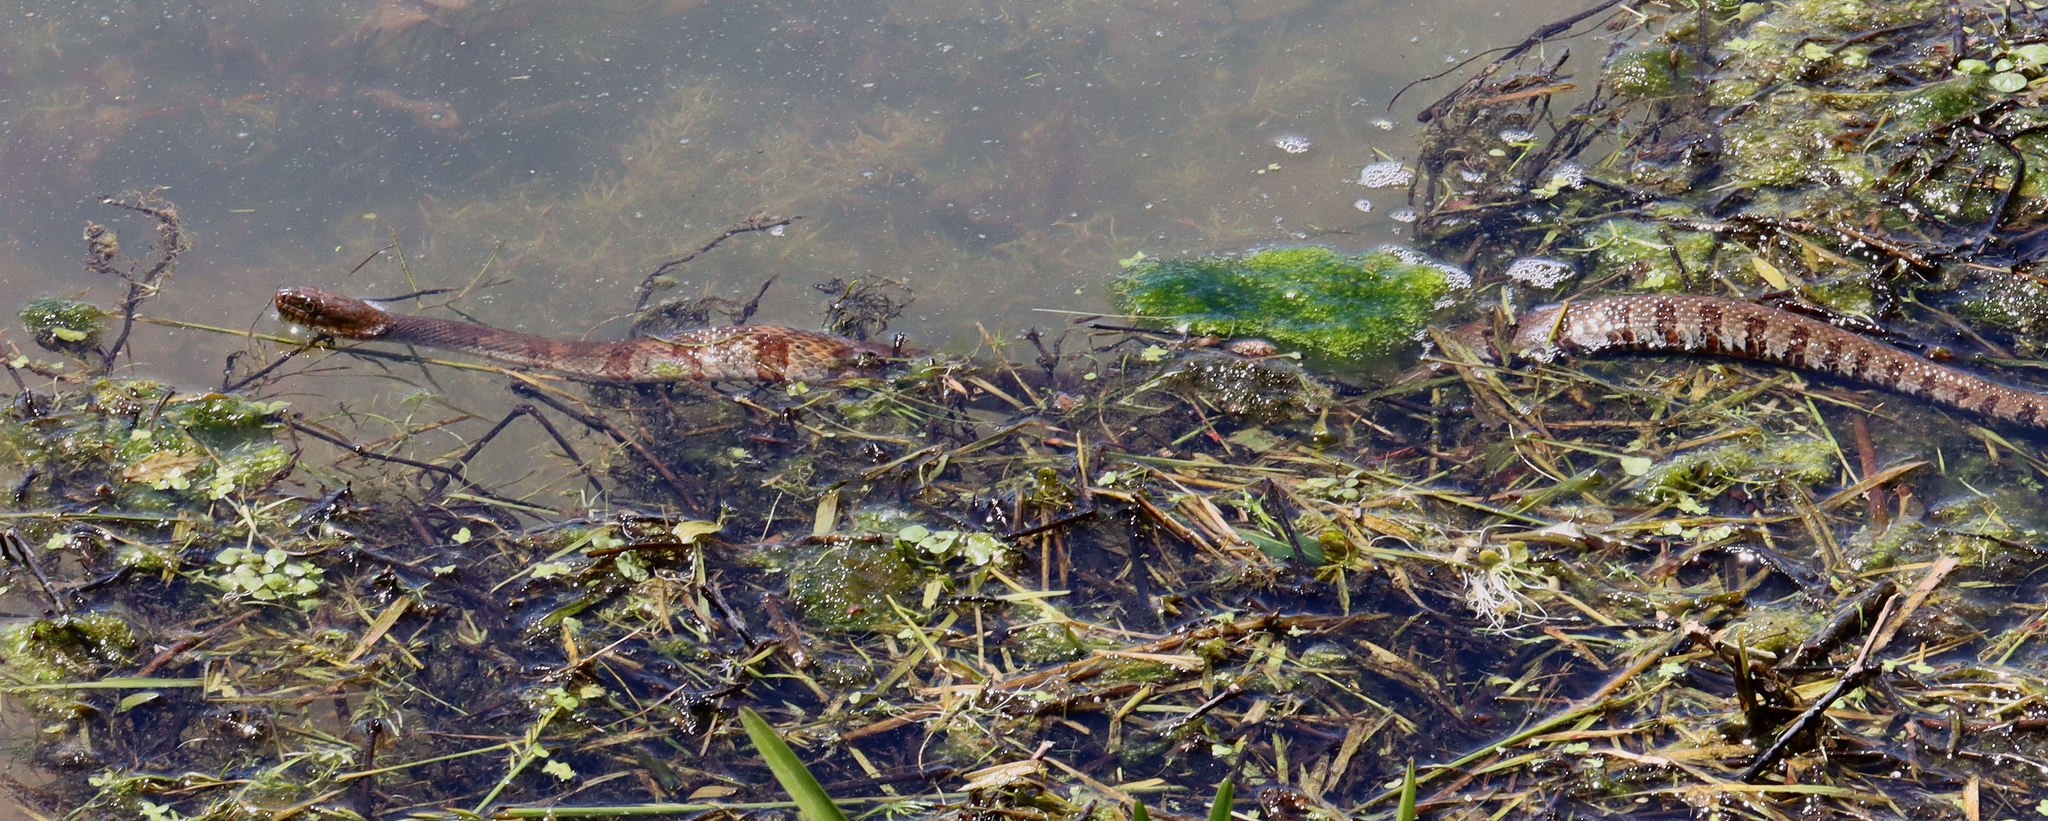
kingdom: Animalia
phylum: Chordata
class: Squamata
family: Colubridae
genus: Nerodia
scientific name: Nerodia sipedon
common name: Northern water snake
